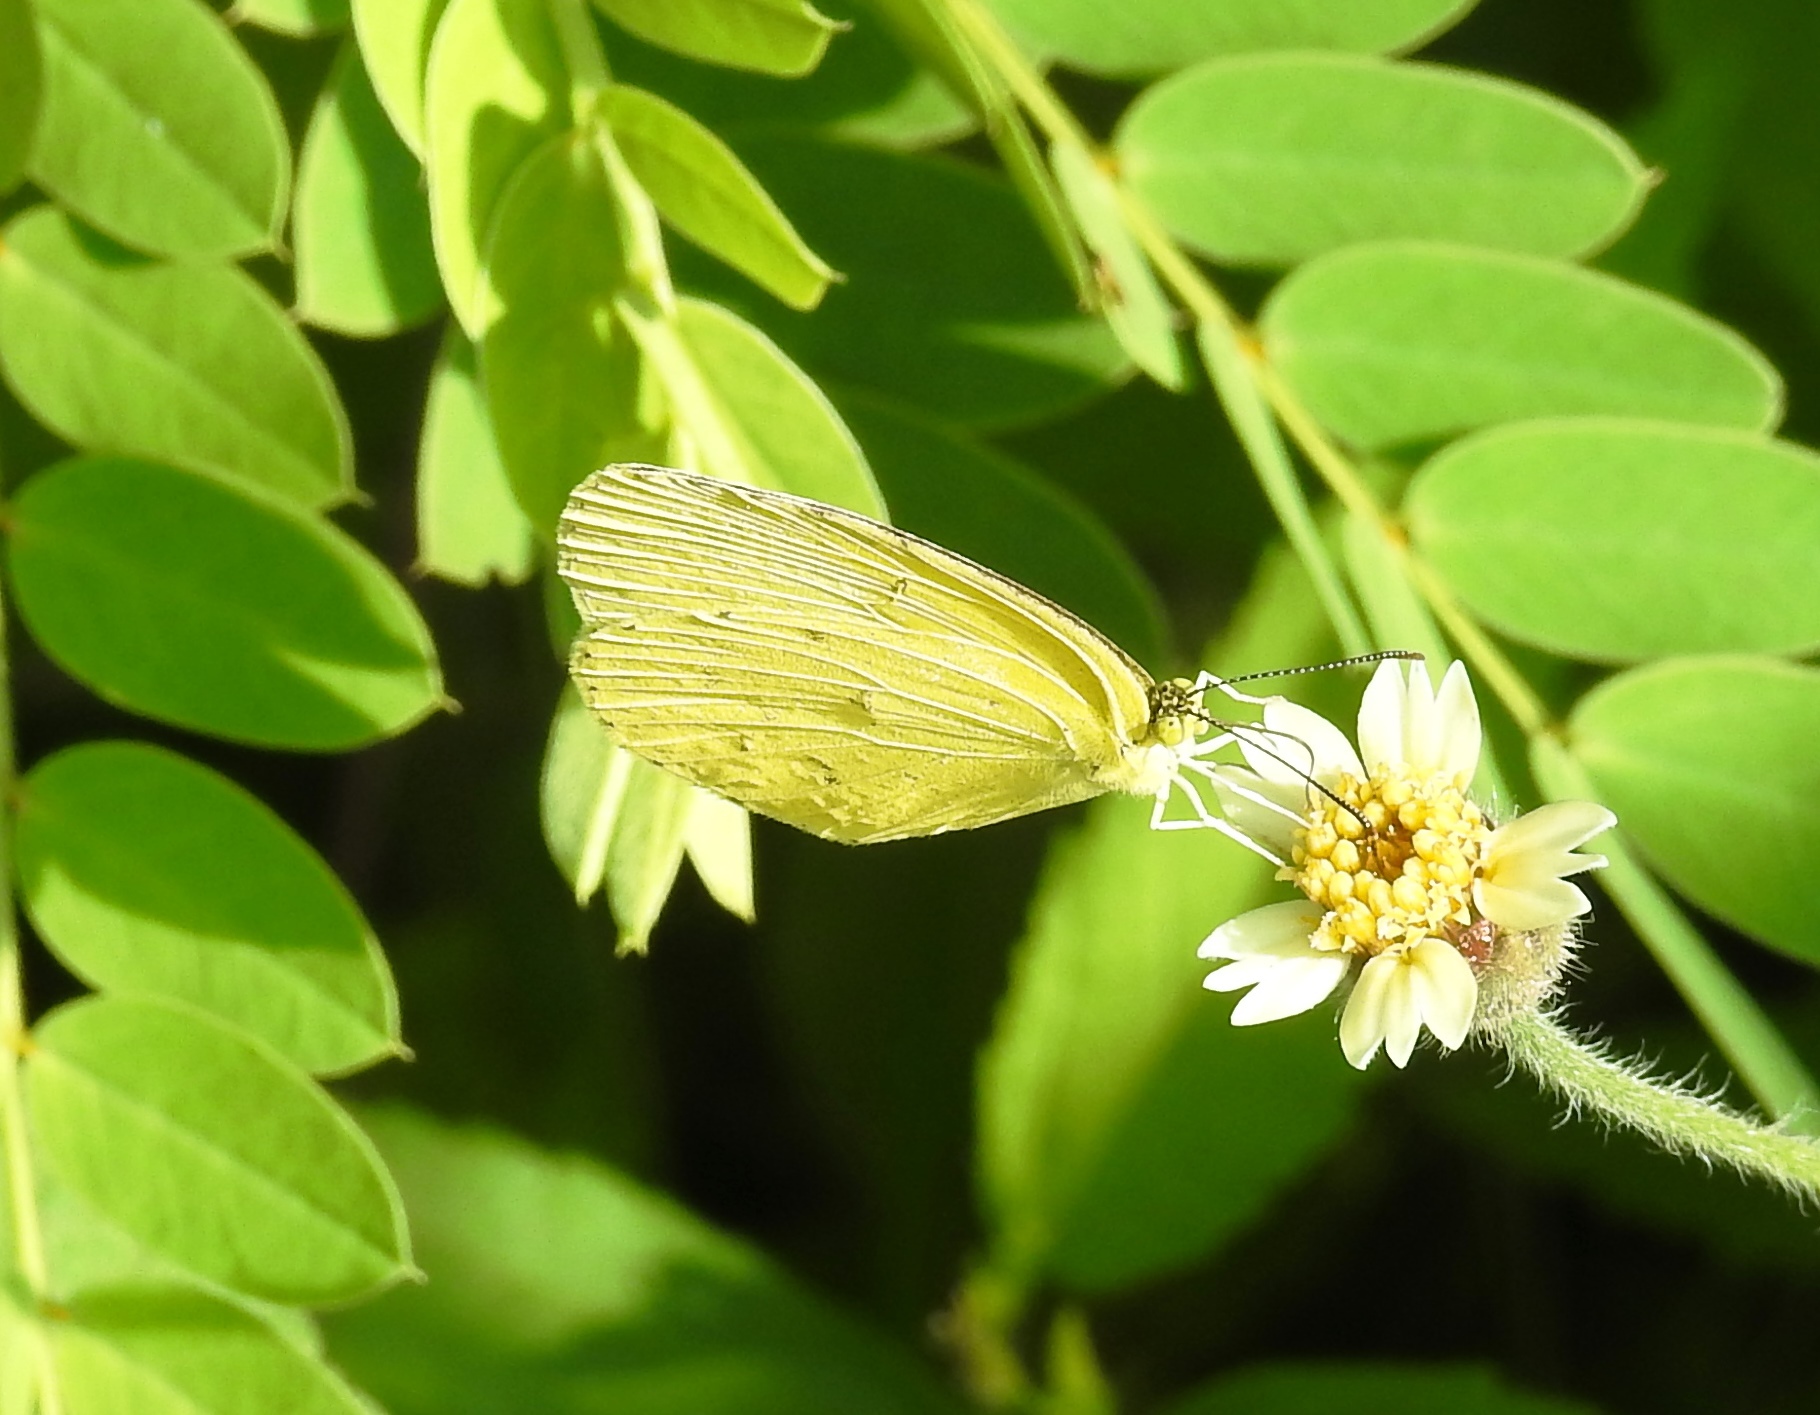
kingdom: Animalia
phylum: Arthropoda
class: Insecta
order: Lepidoptera
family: Pieridae
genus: Eurema
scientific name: Eurema hecabe
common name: Pale grass yellow
